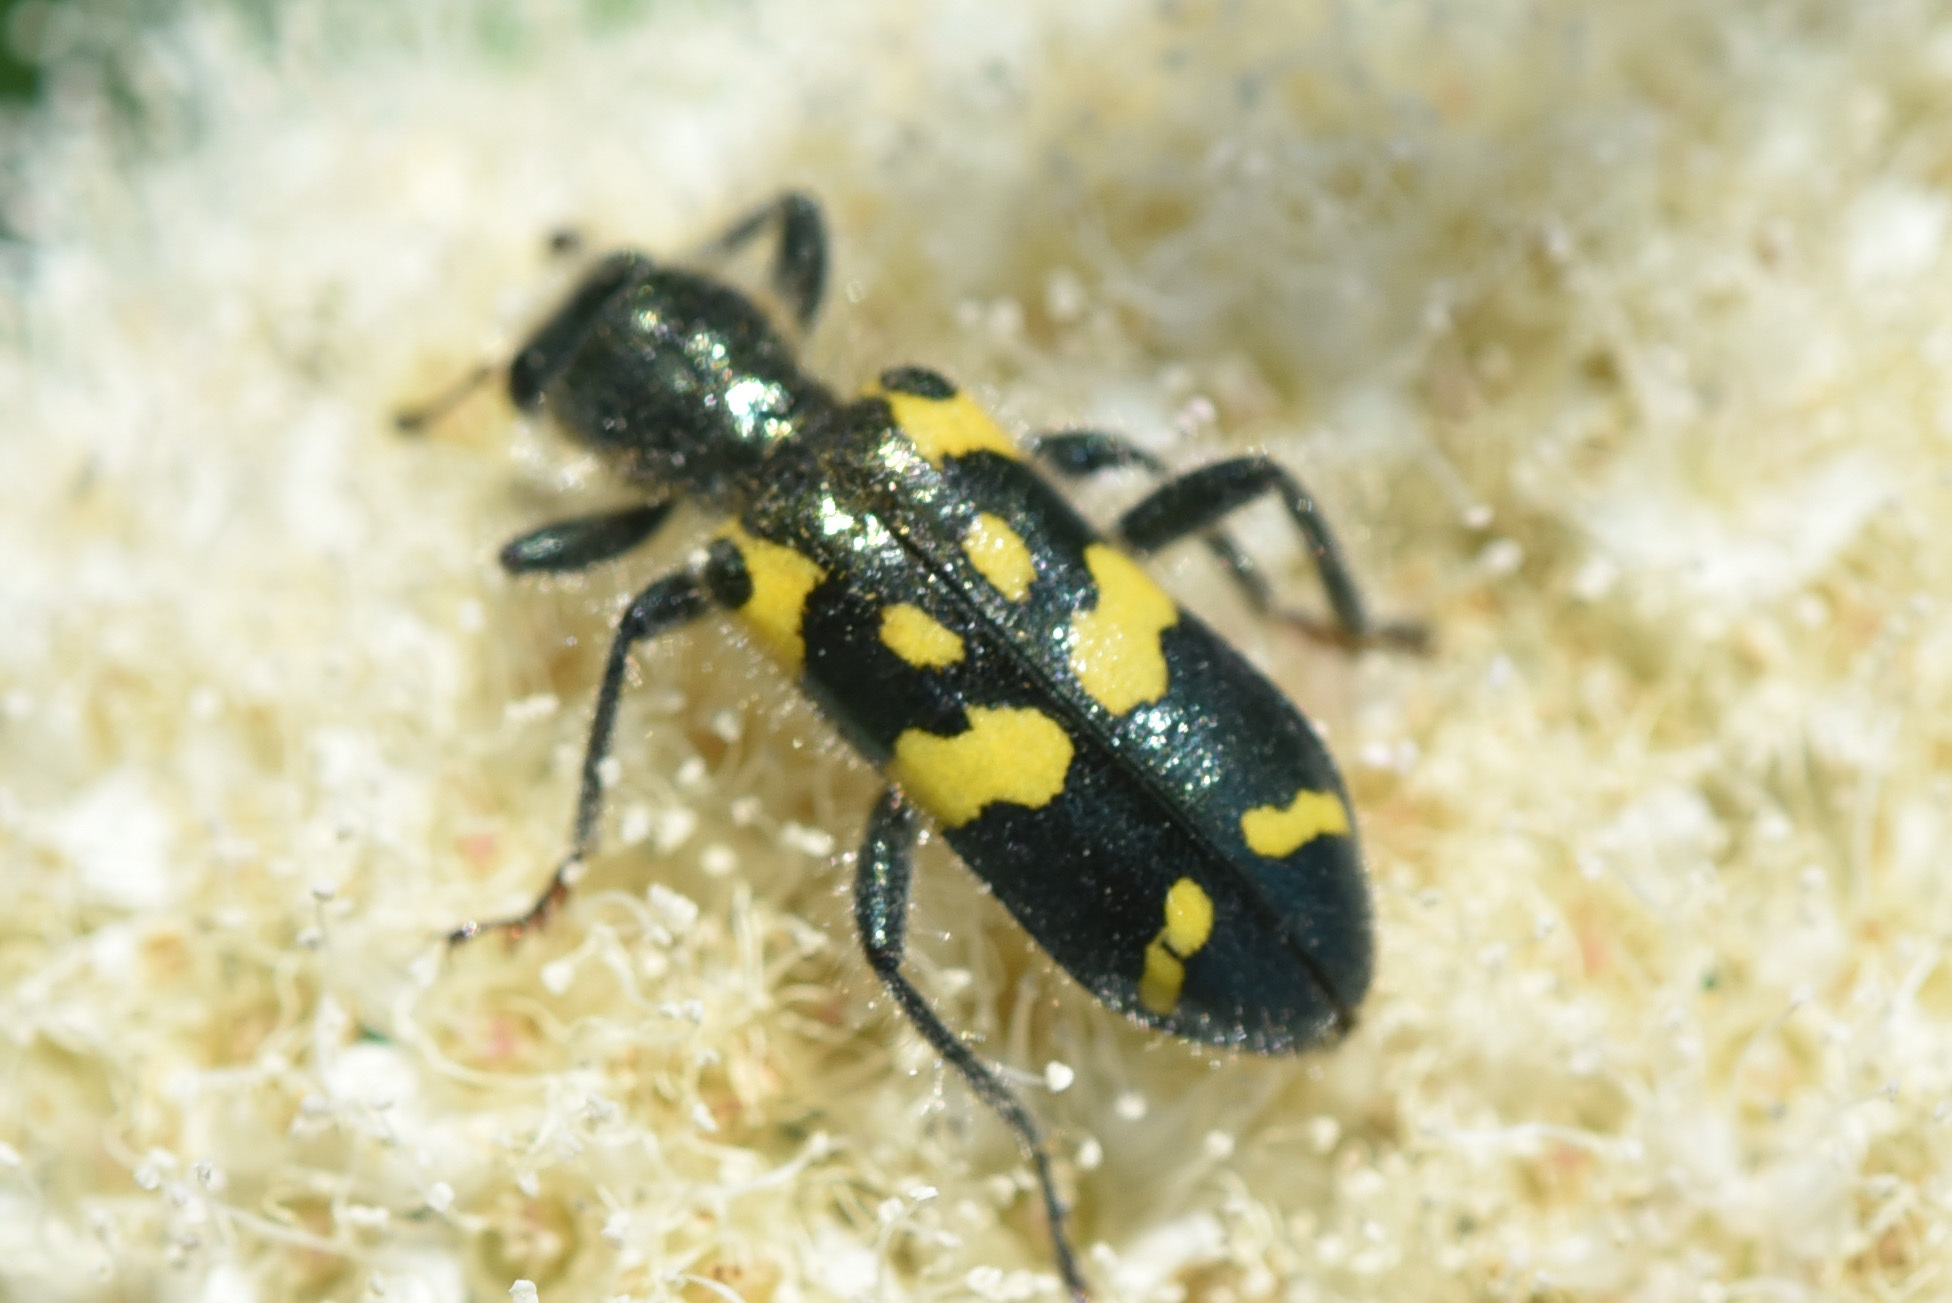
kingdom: Animalia
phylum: Arthropoda
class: Insecta
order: Coleoptera
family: Cleridae
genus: Trichodes
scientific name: Trichodes ornatus
